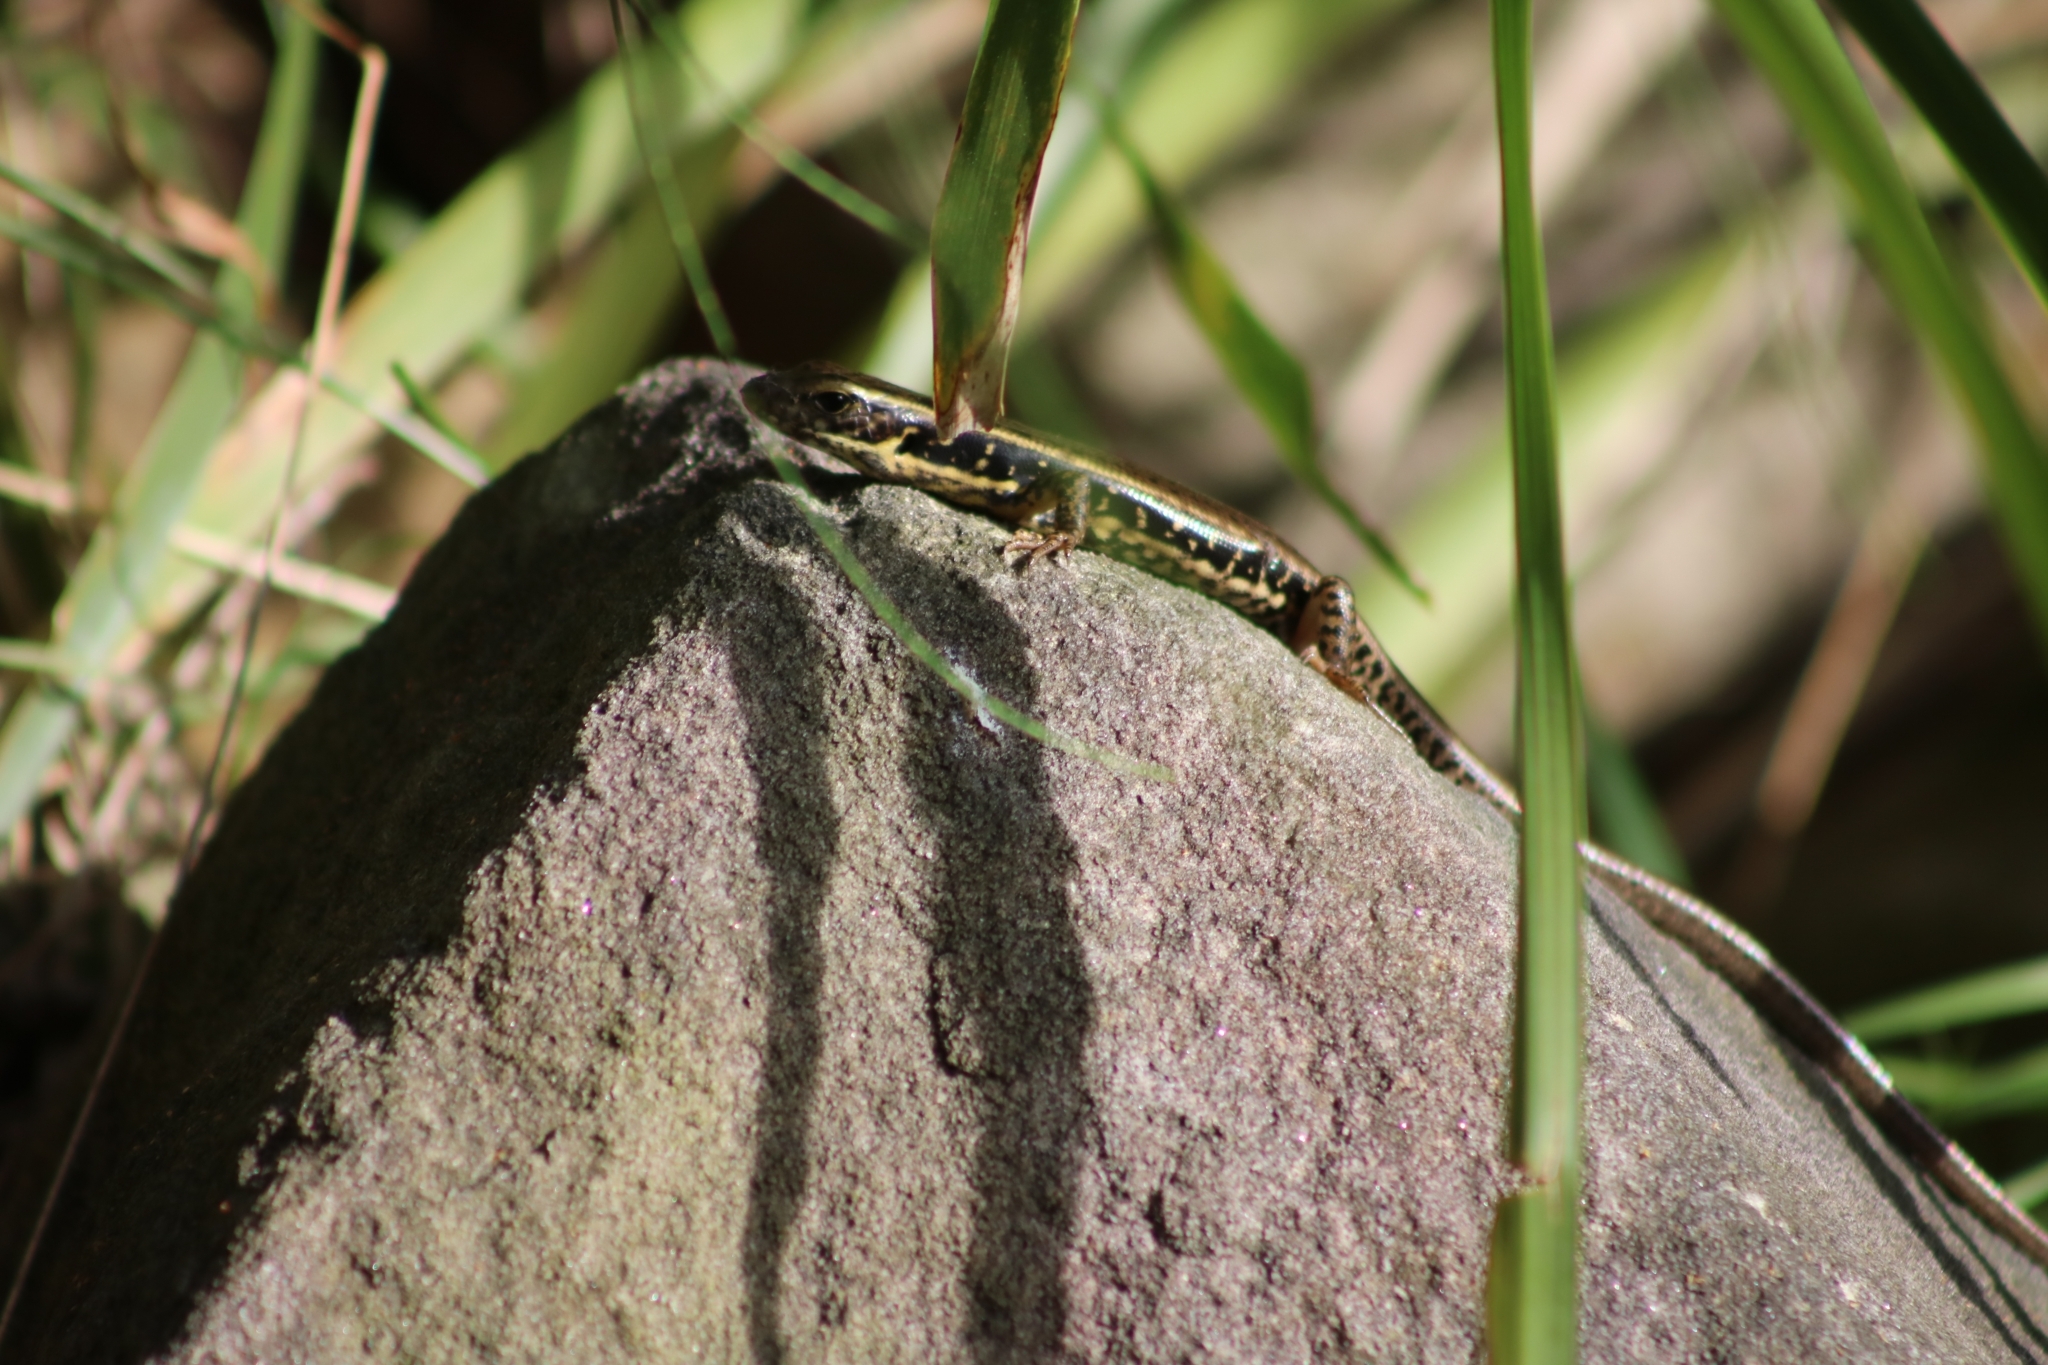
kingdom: Animalia
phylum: Chordata
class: Squamata
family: Scincidae
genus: Eulamprus
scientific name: Eulamprus quoyii
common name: Eastern water skink
